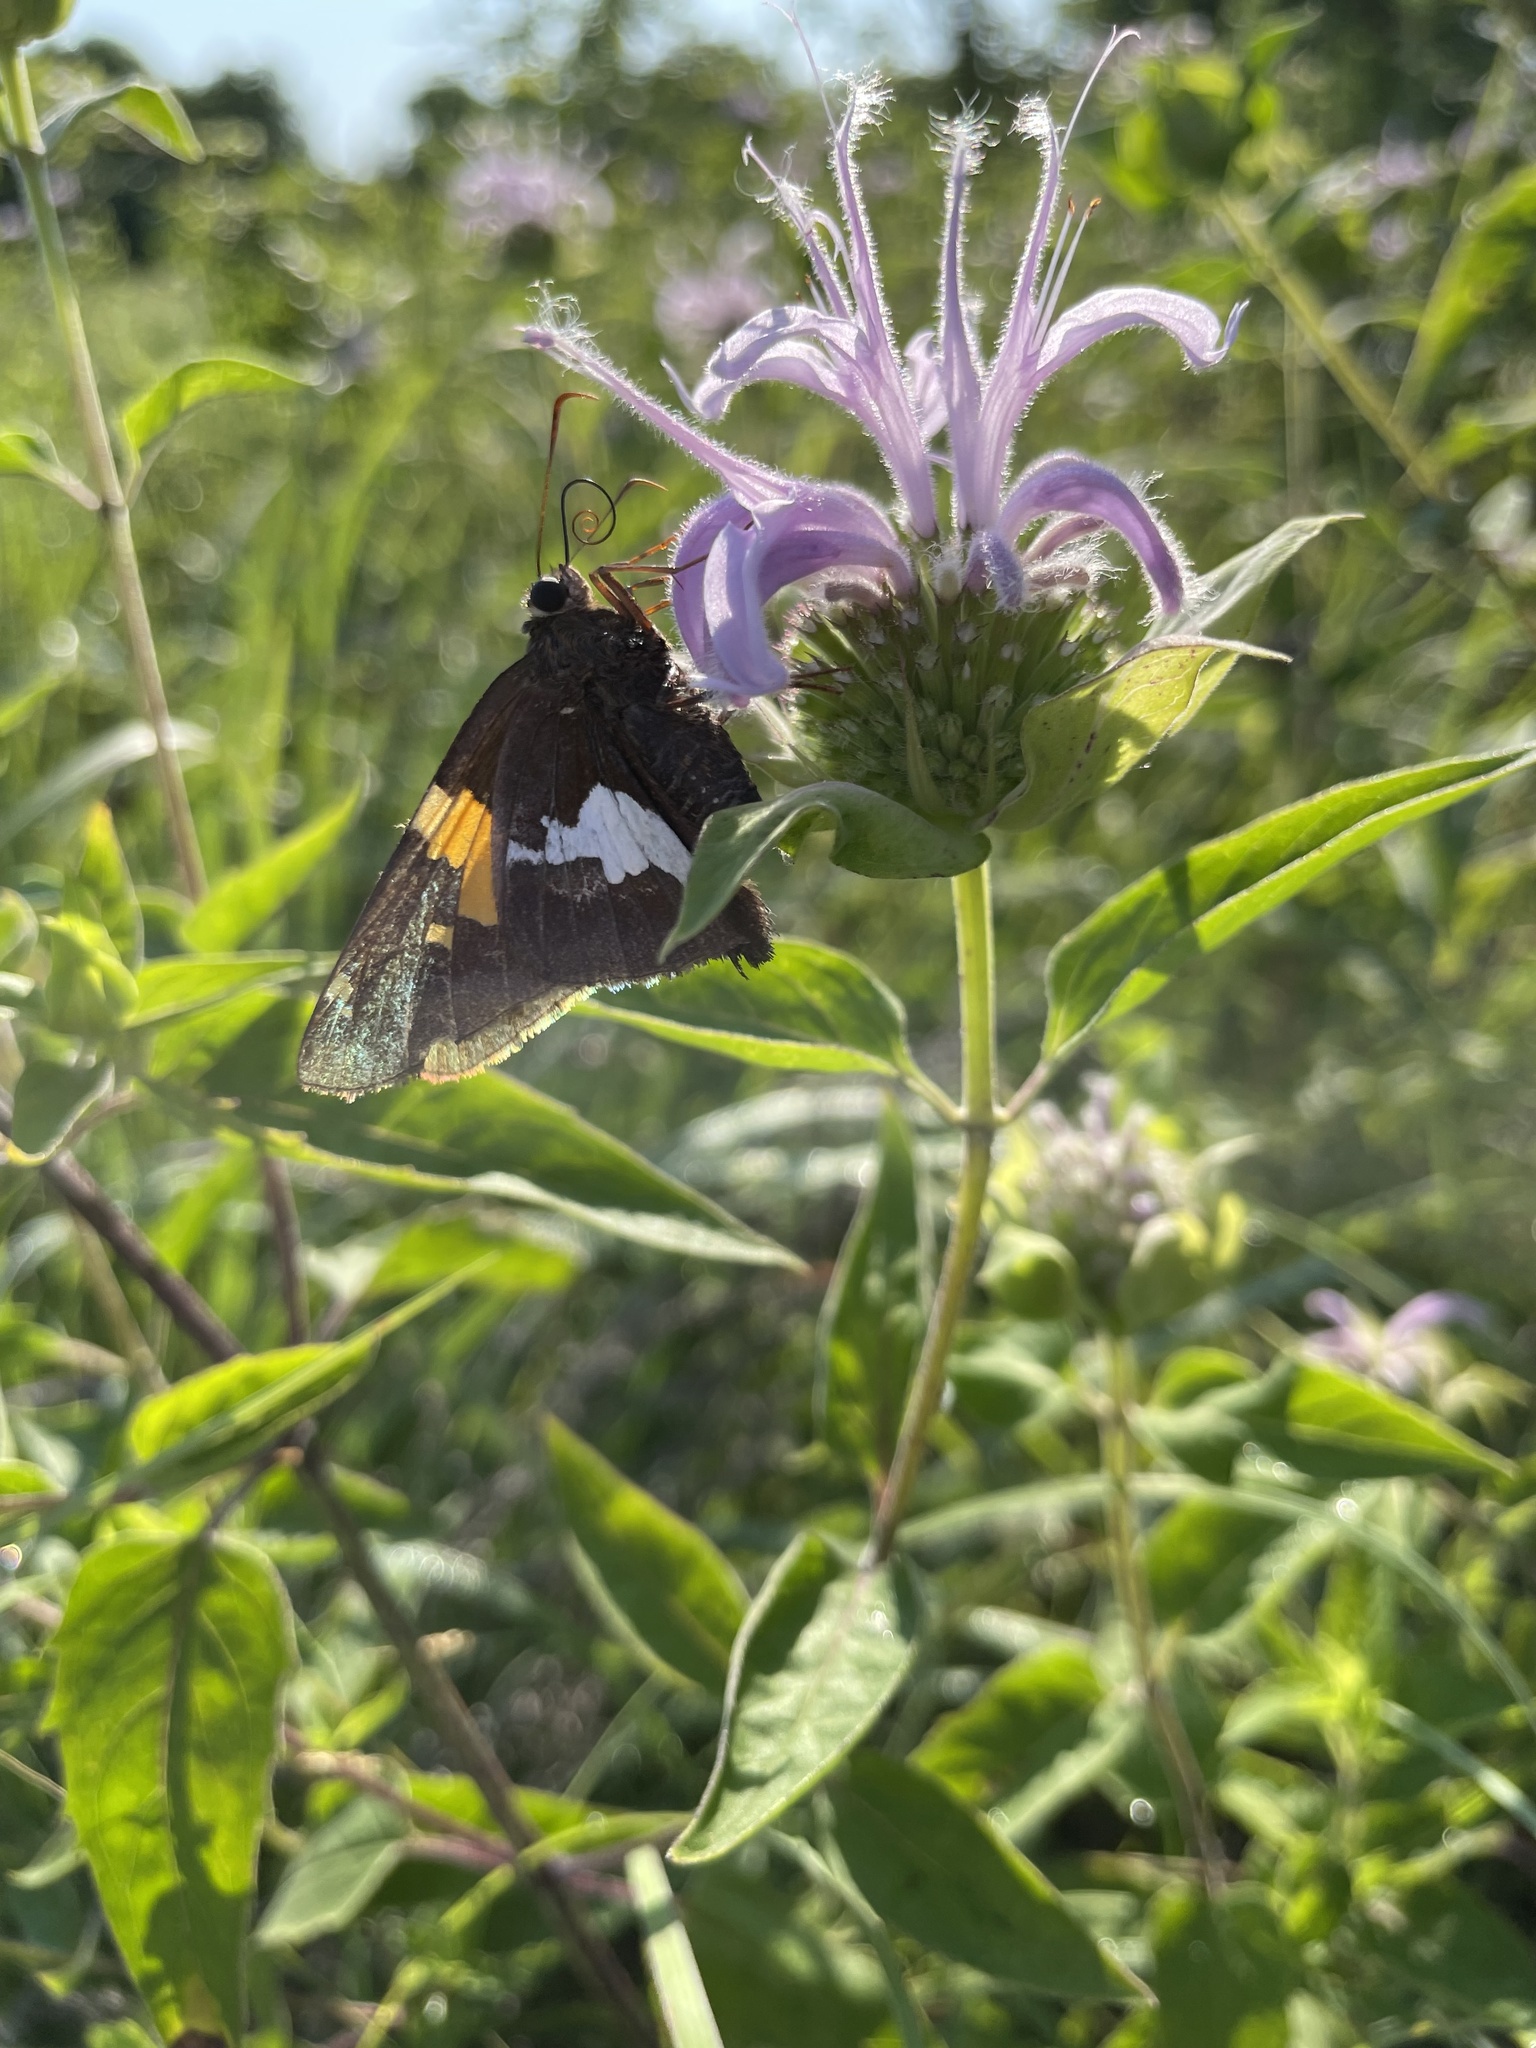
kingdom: Animalia
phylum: Arthropoda
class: Insecta
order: Lepidoptera
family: Hesperiidae
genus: Epargyreus
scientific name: Epargyreus clarus
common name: Silver-spotted skipper
